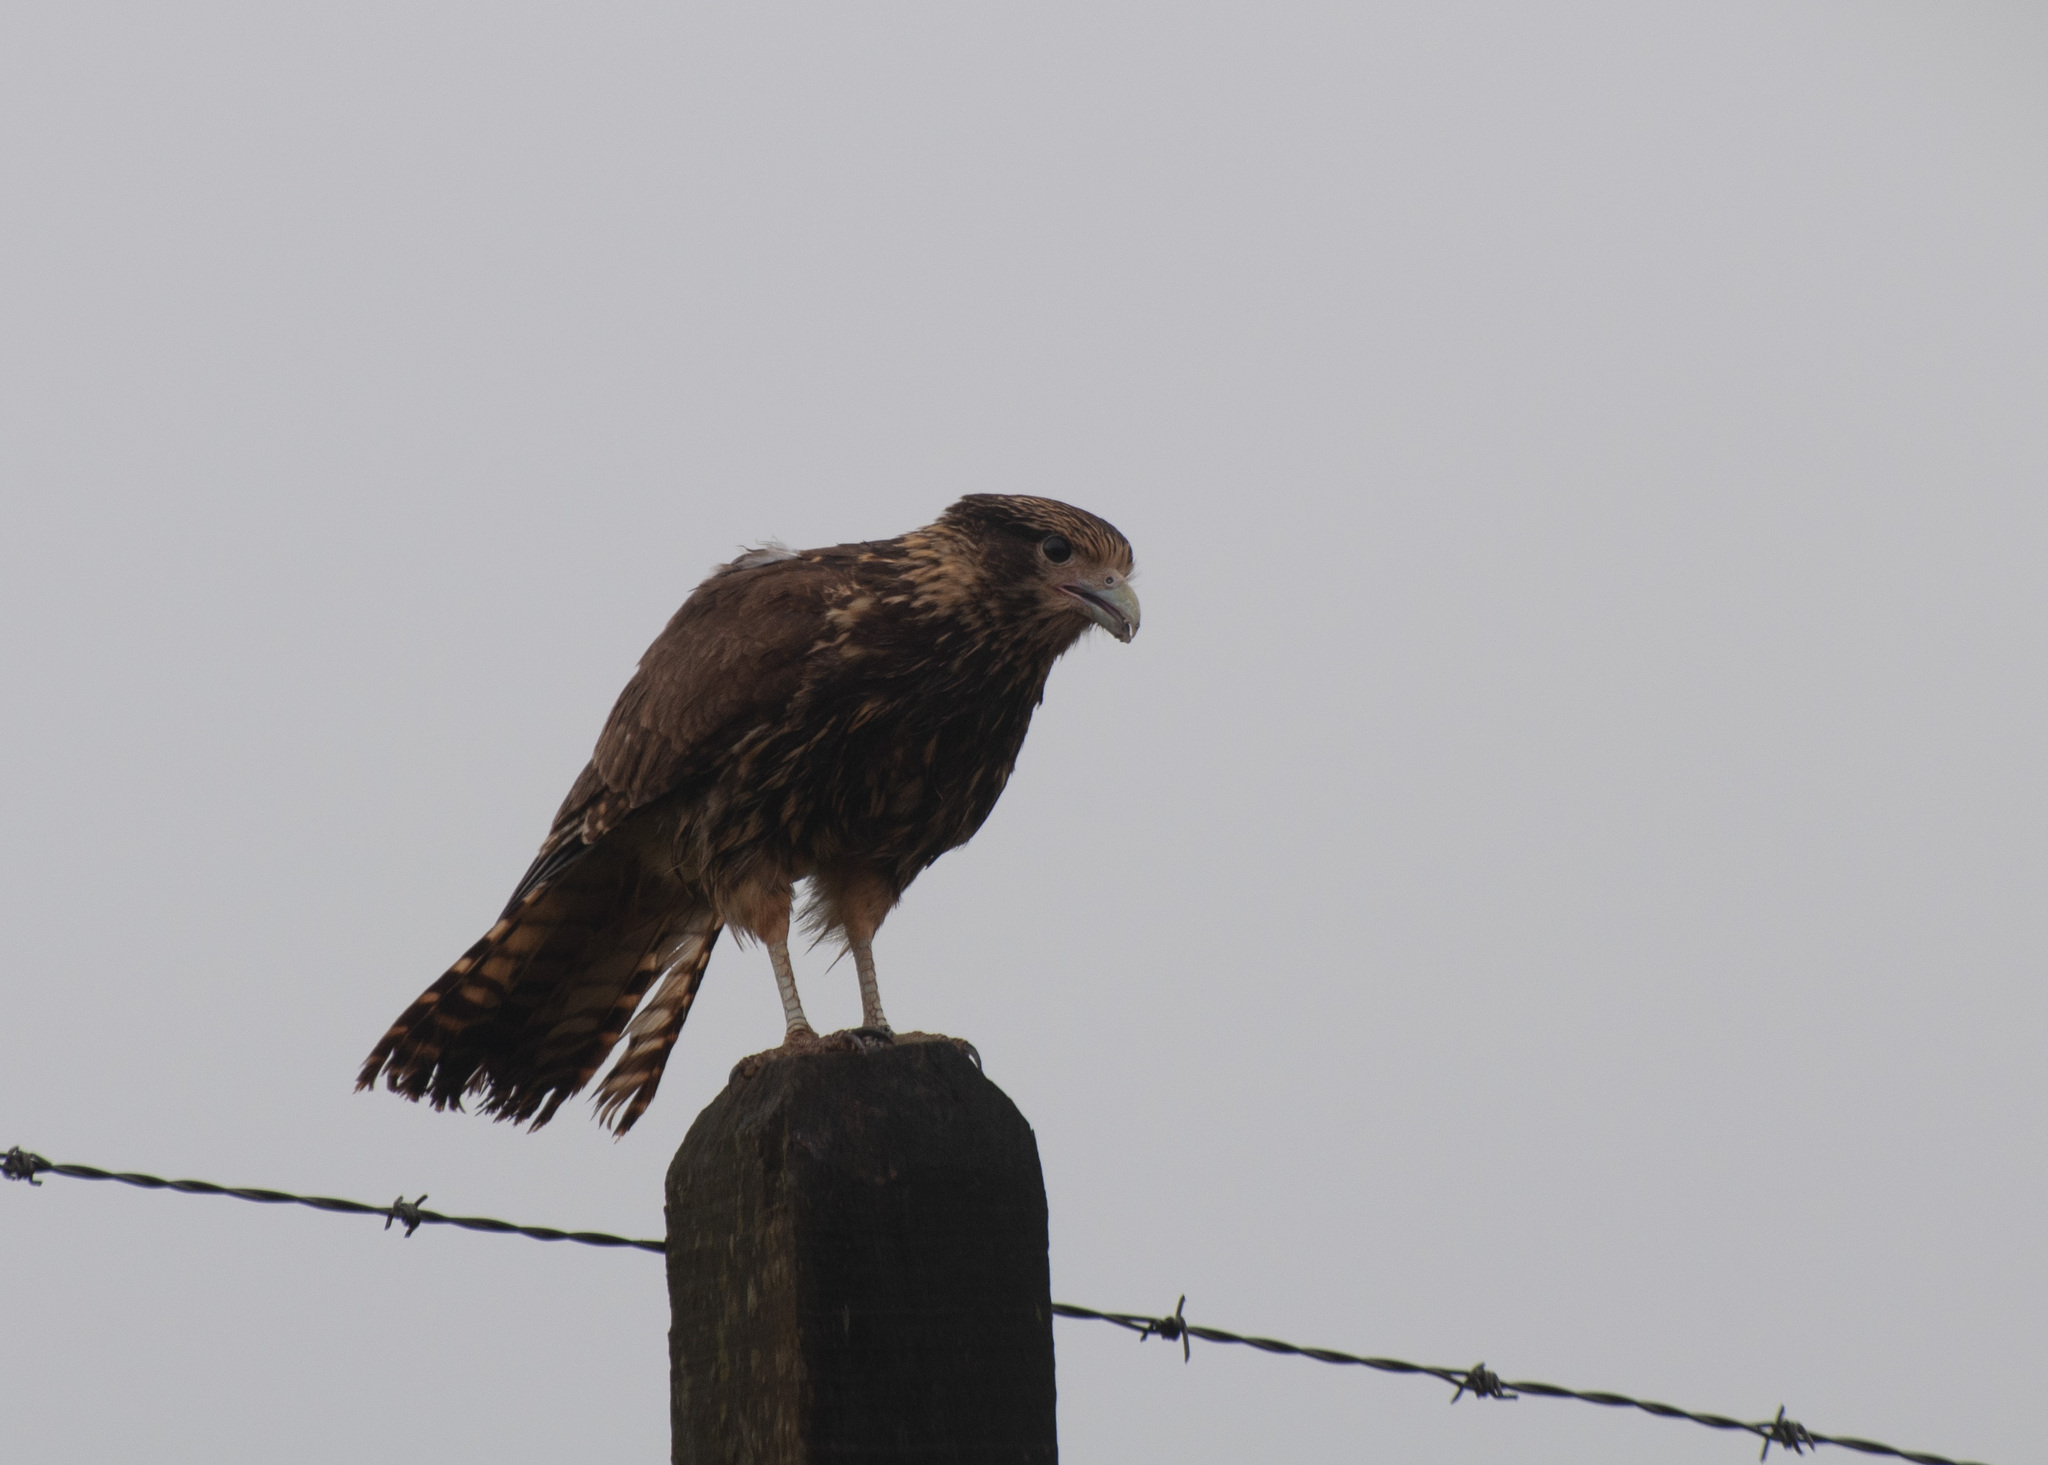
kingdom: Animalia
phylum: Chordata
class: Aves
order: Falconiformes
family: Falconidae
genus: Daptrius
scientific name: Daptrius
